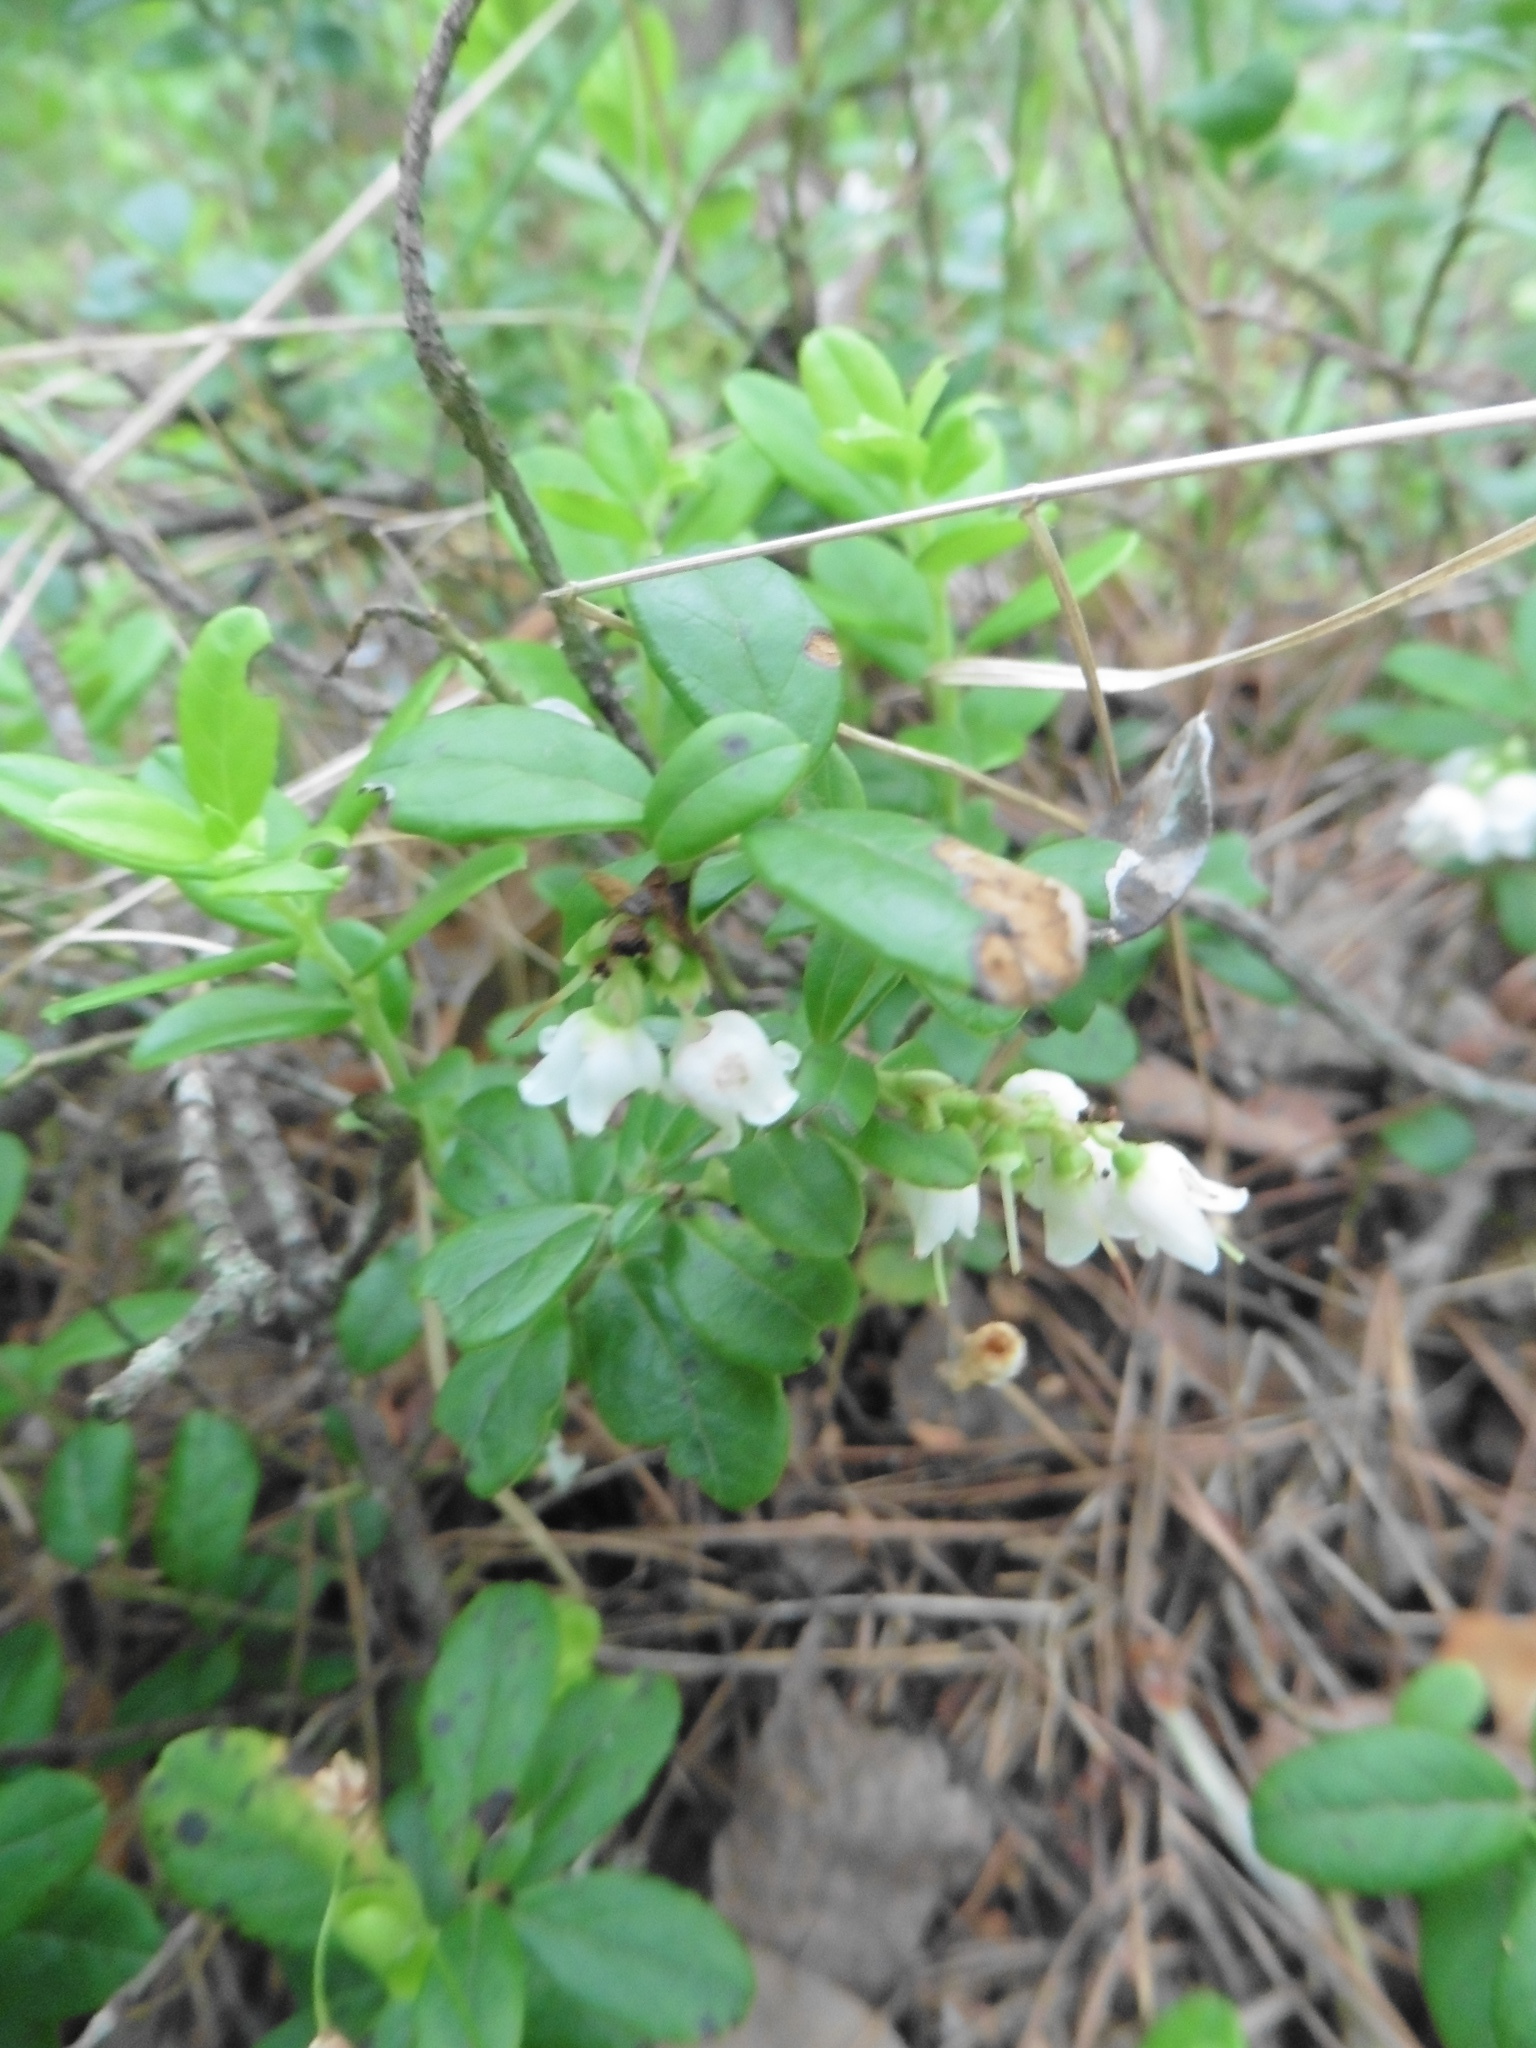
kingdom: Plantae
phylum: Tracheophyta
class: Magnoliopsida
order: Ericales
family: Ericaceae
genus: Vaccinium
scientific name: Vaccinium vitis-idaea
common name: Cowberry
